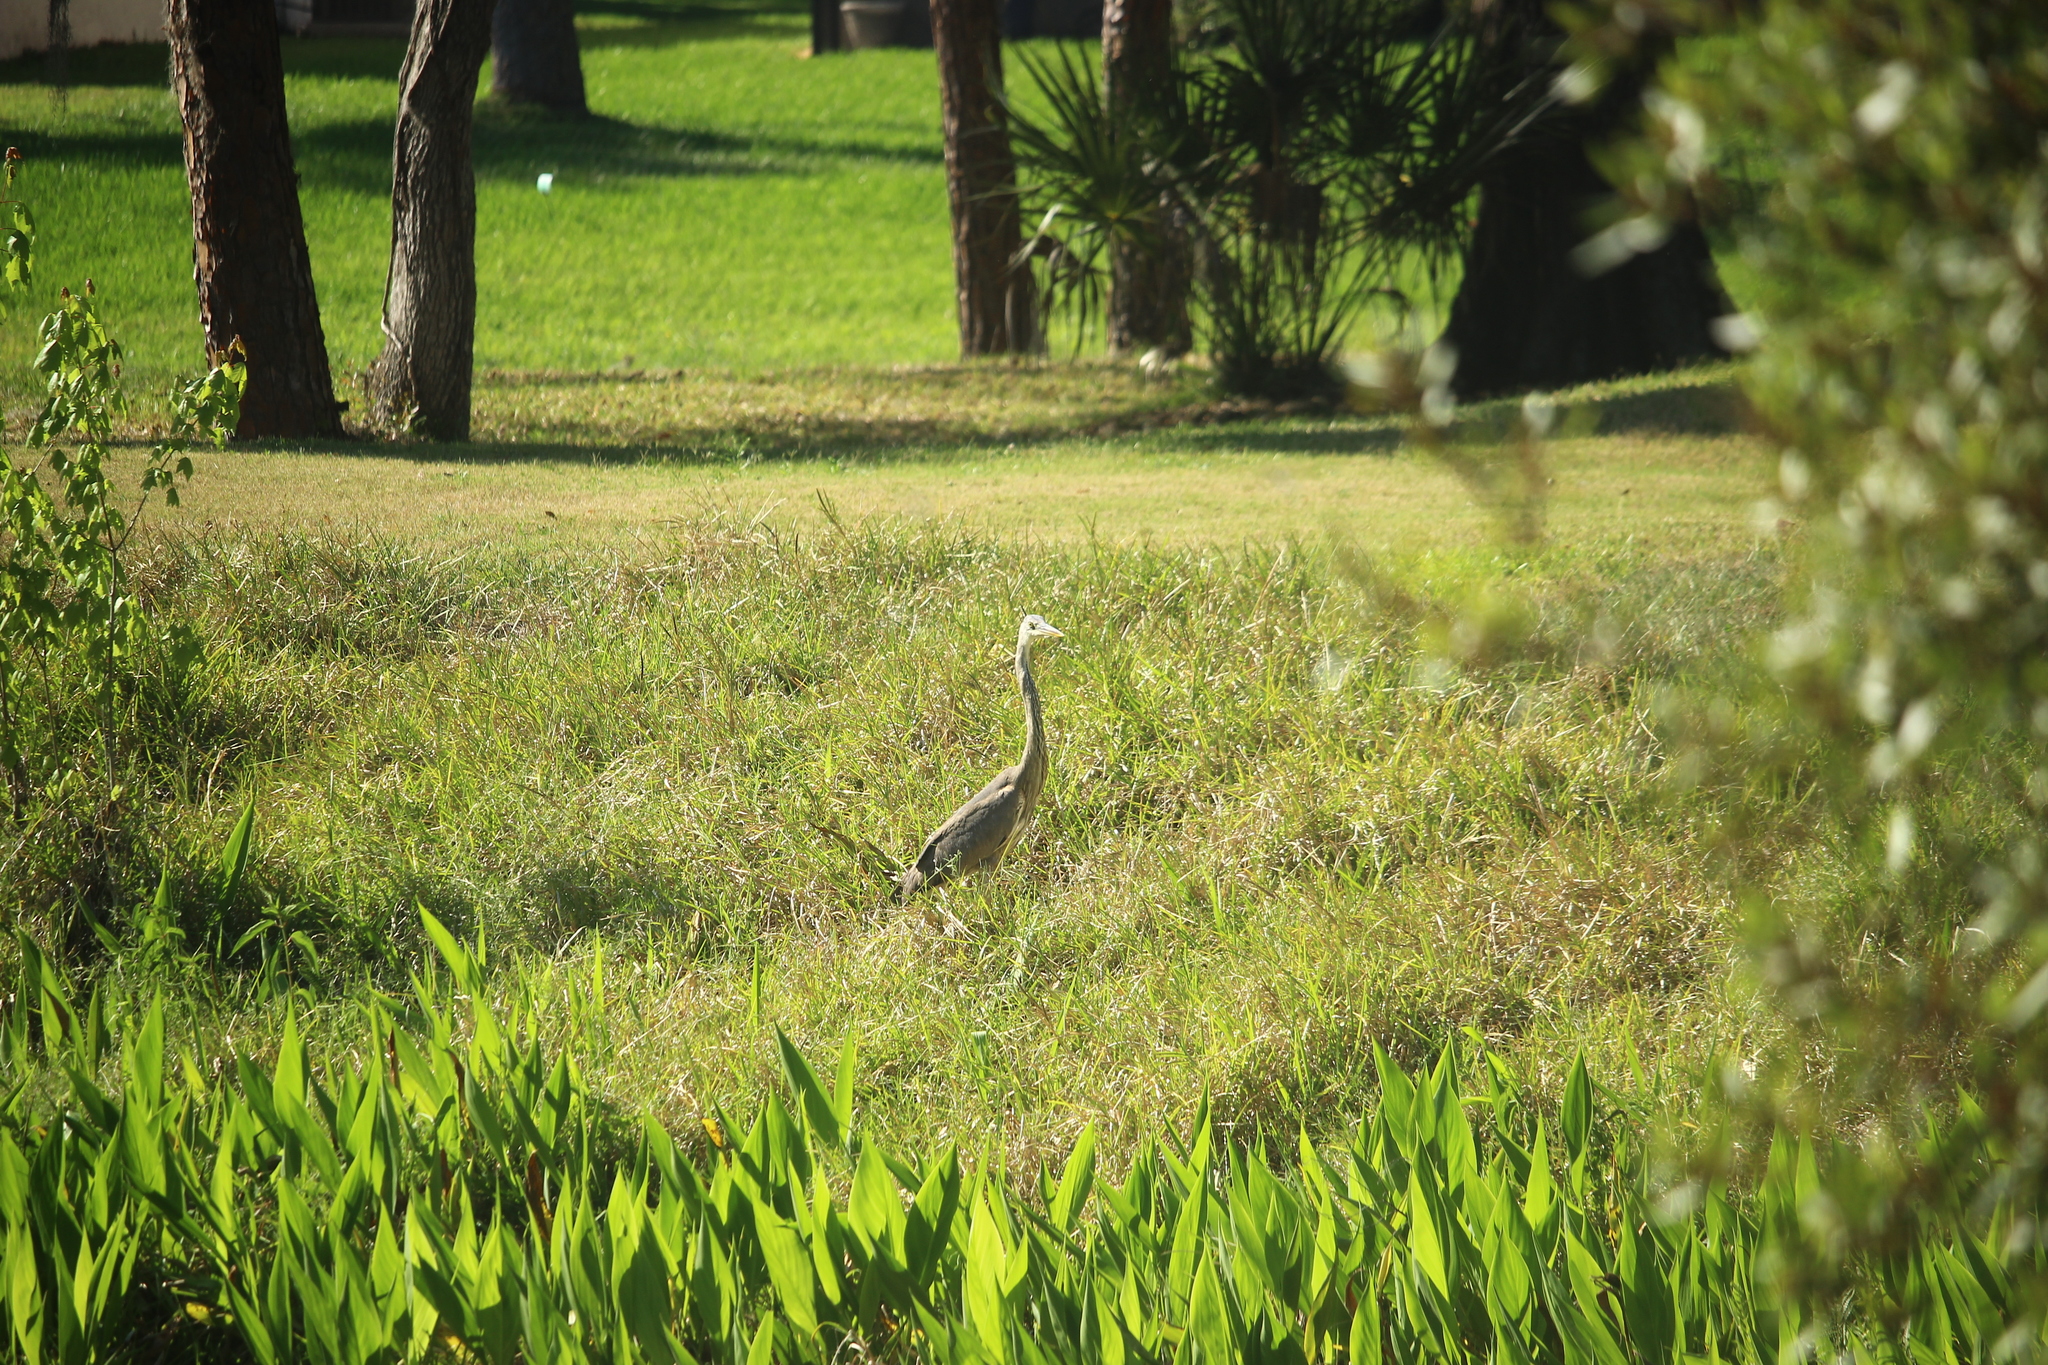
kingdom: Animalia
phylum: Chordata
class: Aves
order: Pelecaniformes
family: Ardeidae
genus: Ardea
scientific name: Ardea herodias
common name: Great blue heron
